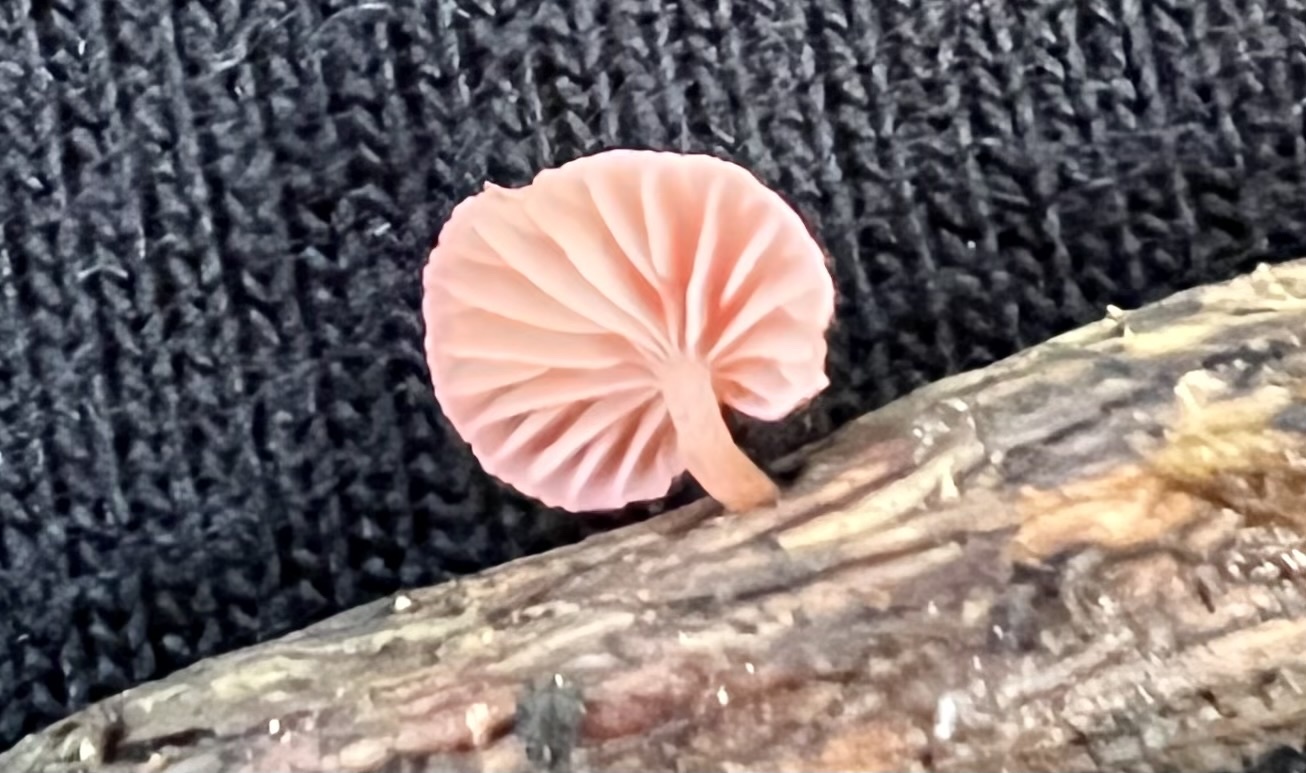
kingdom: Fungi
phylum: Basidiomycota
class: Agaricomycetes
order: Agaricales
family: Mycenaceae
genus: Mycena
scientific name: Mycena roseoflava
